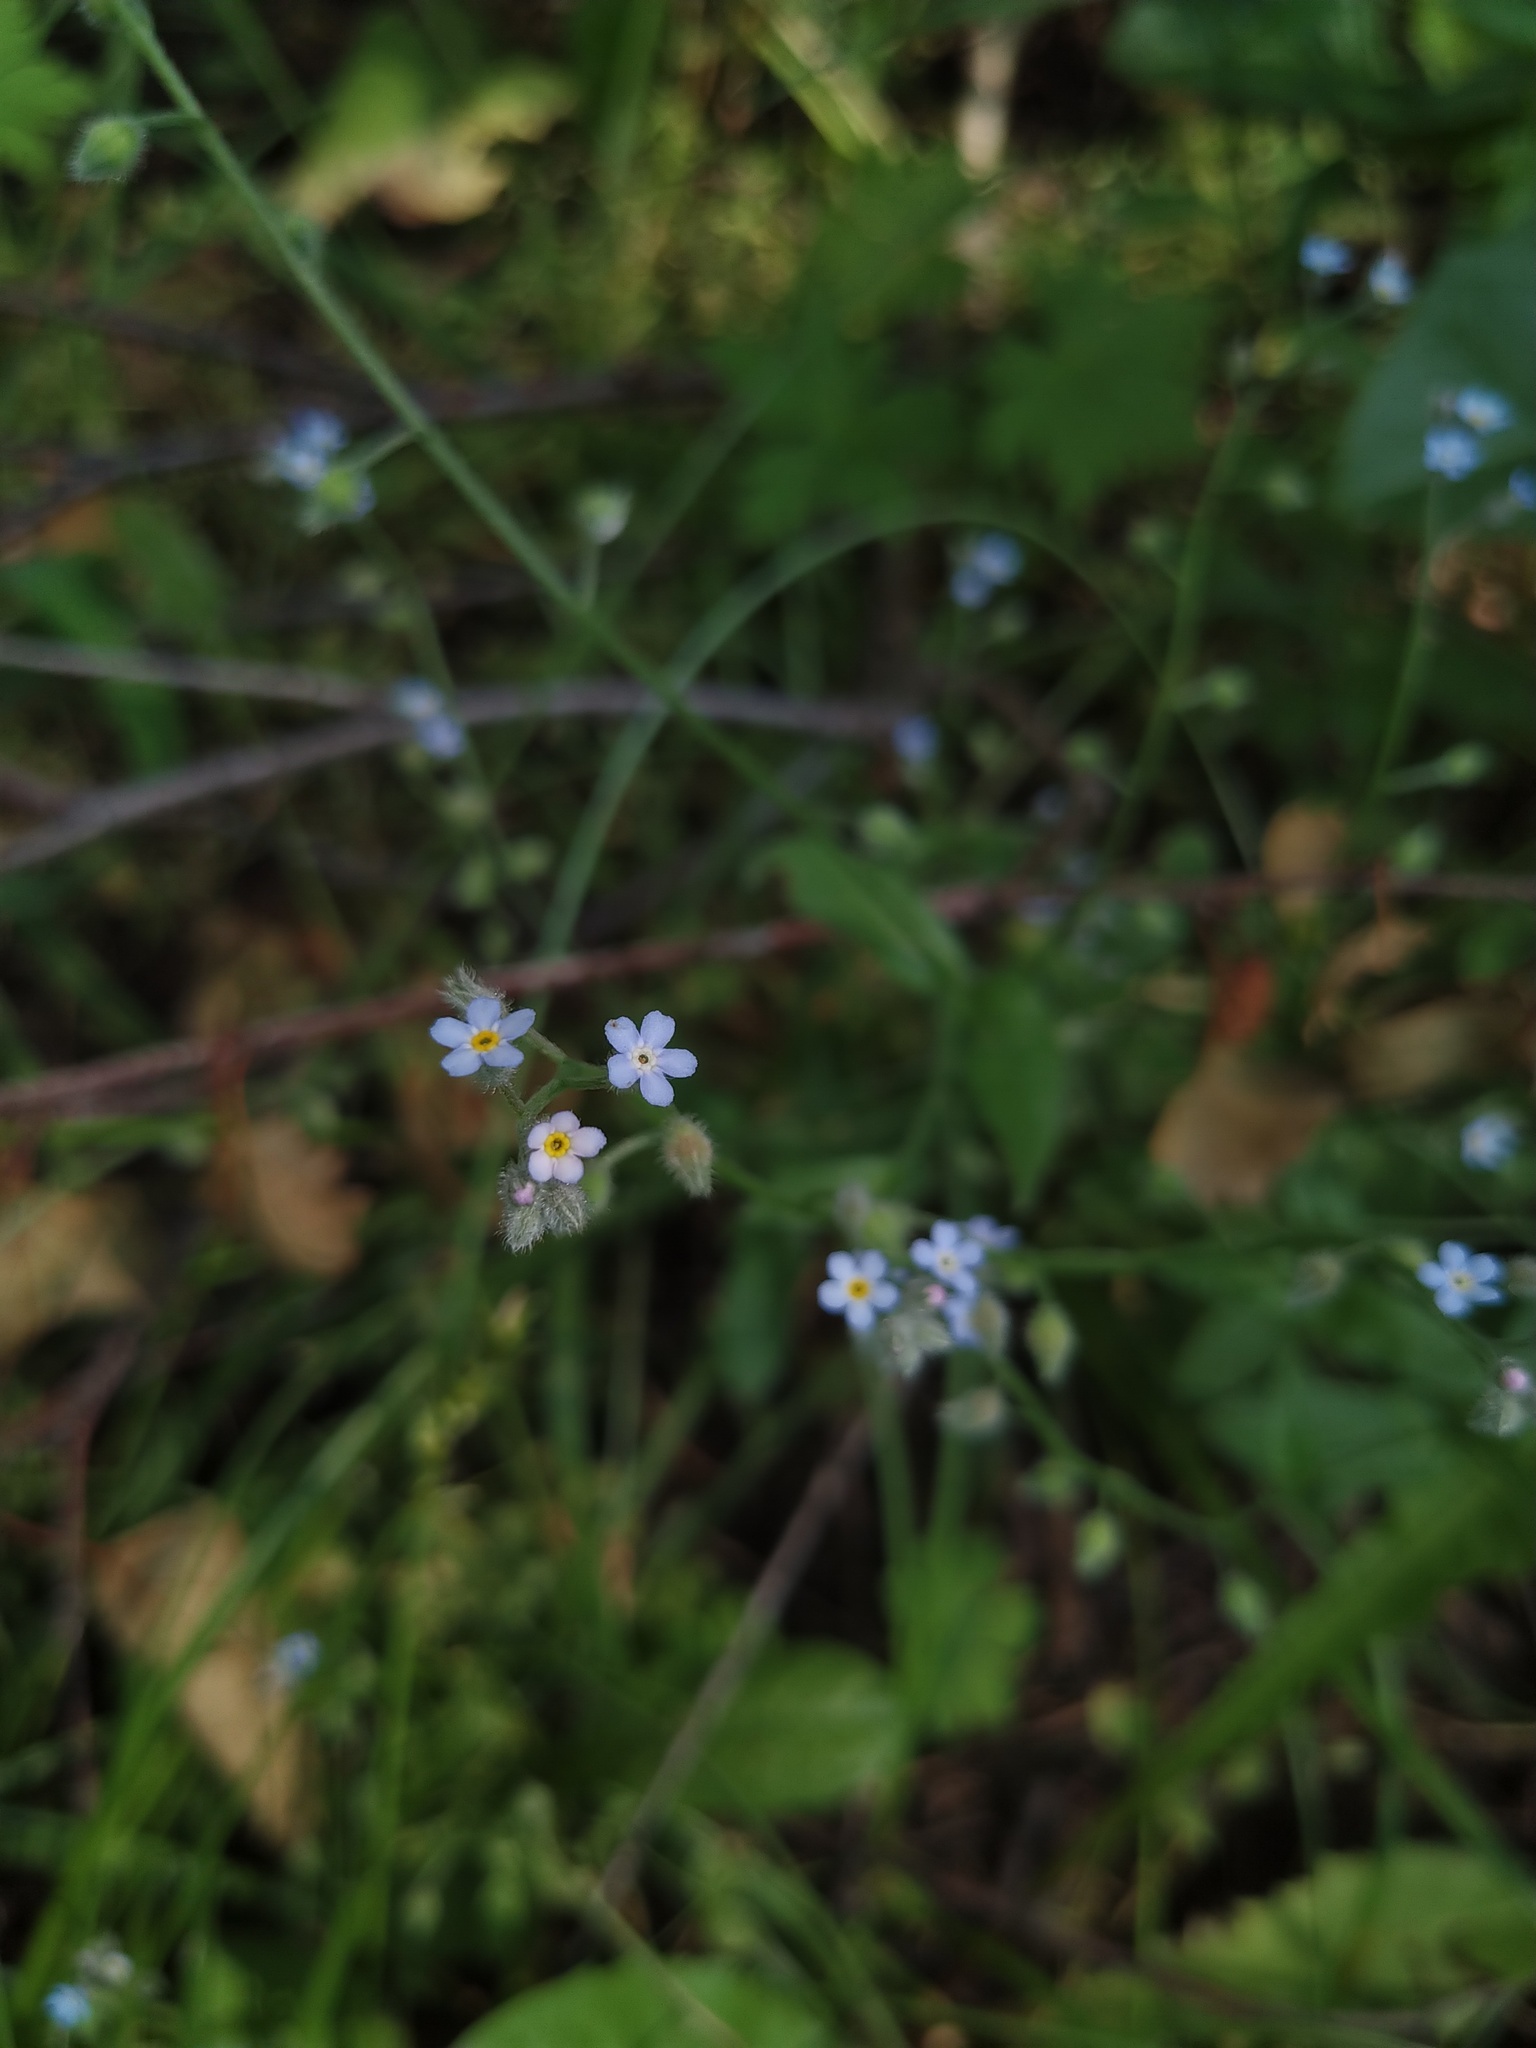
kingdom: Plantae
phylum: Tracheophyta
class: Magnoliopsida
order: Boraginales
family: Boraginaceae
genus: Myosotis
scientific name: Myosotis arvensis
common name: Field forget-me-not
